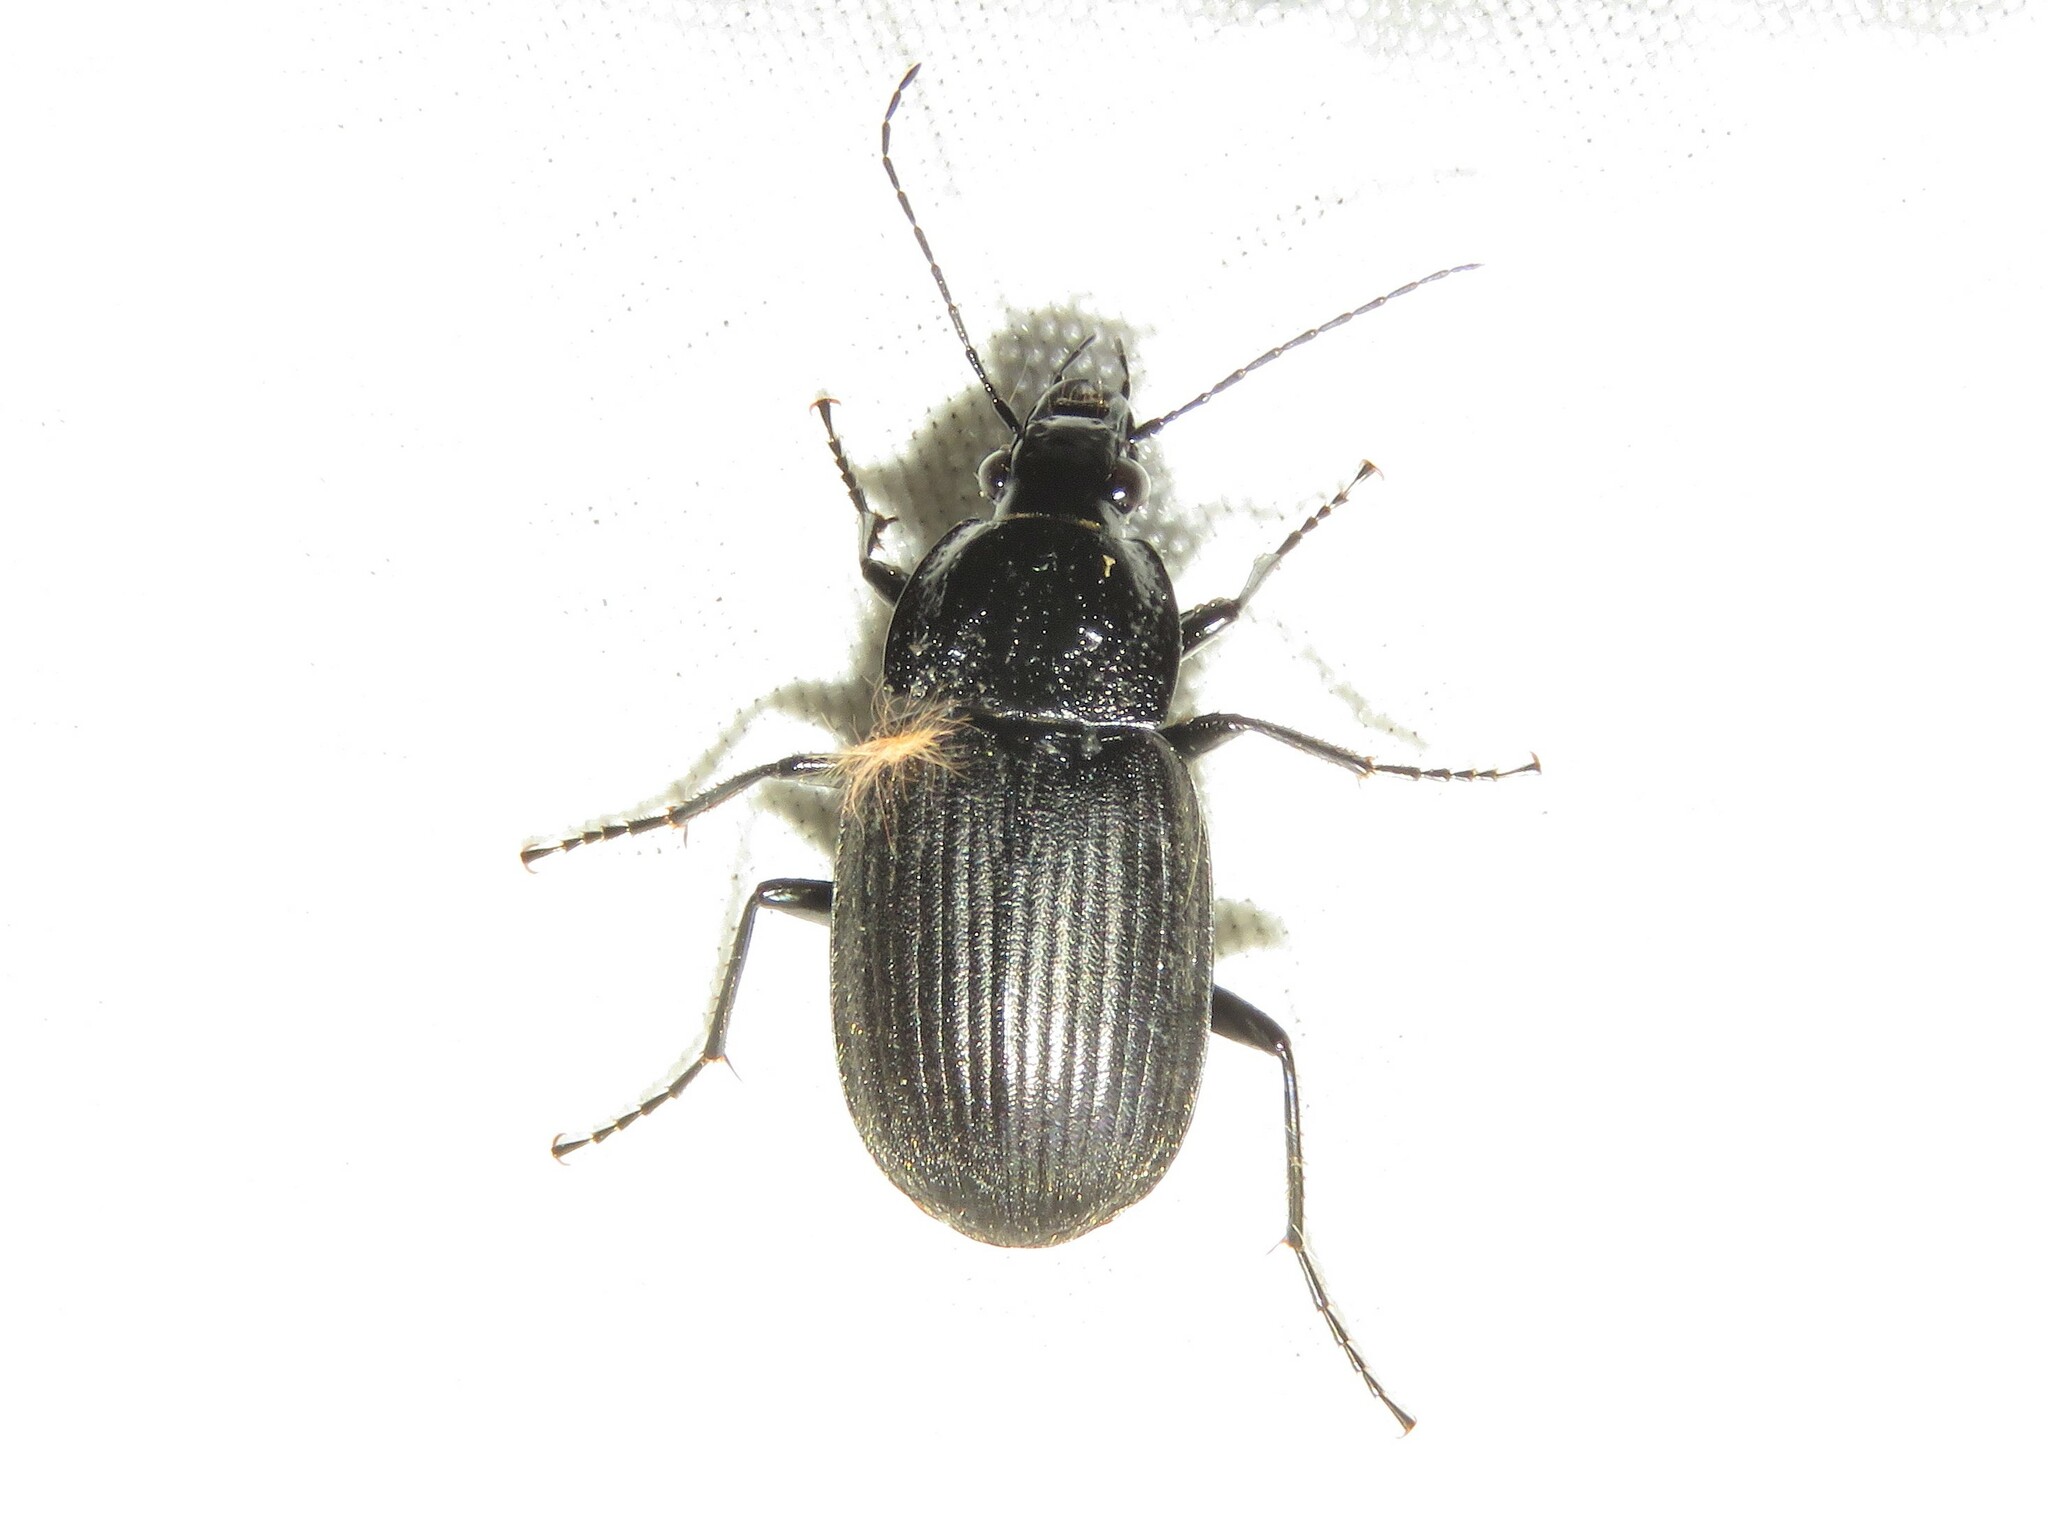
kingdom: Animalia
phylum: Arthropoda
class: Insecta
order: Coleoptera
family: Carabidae
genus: Chlaenius
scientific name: Chlaenius niger
